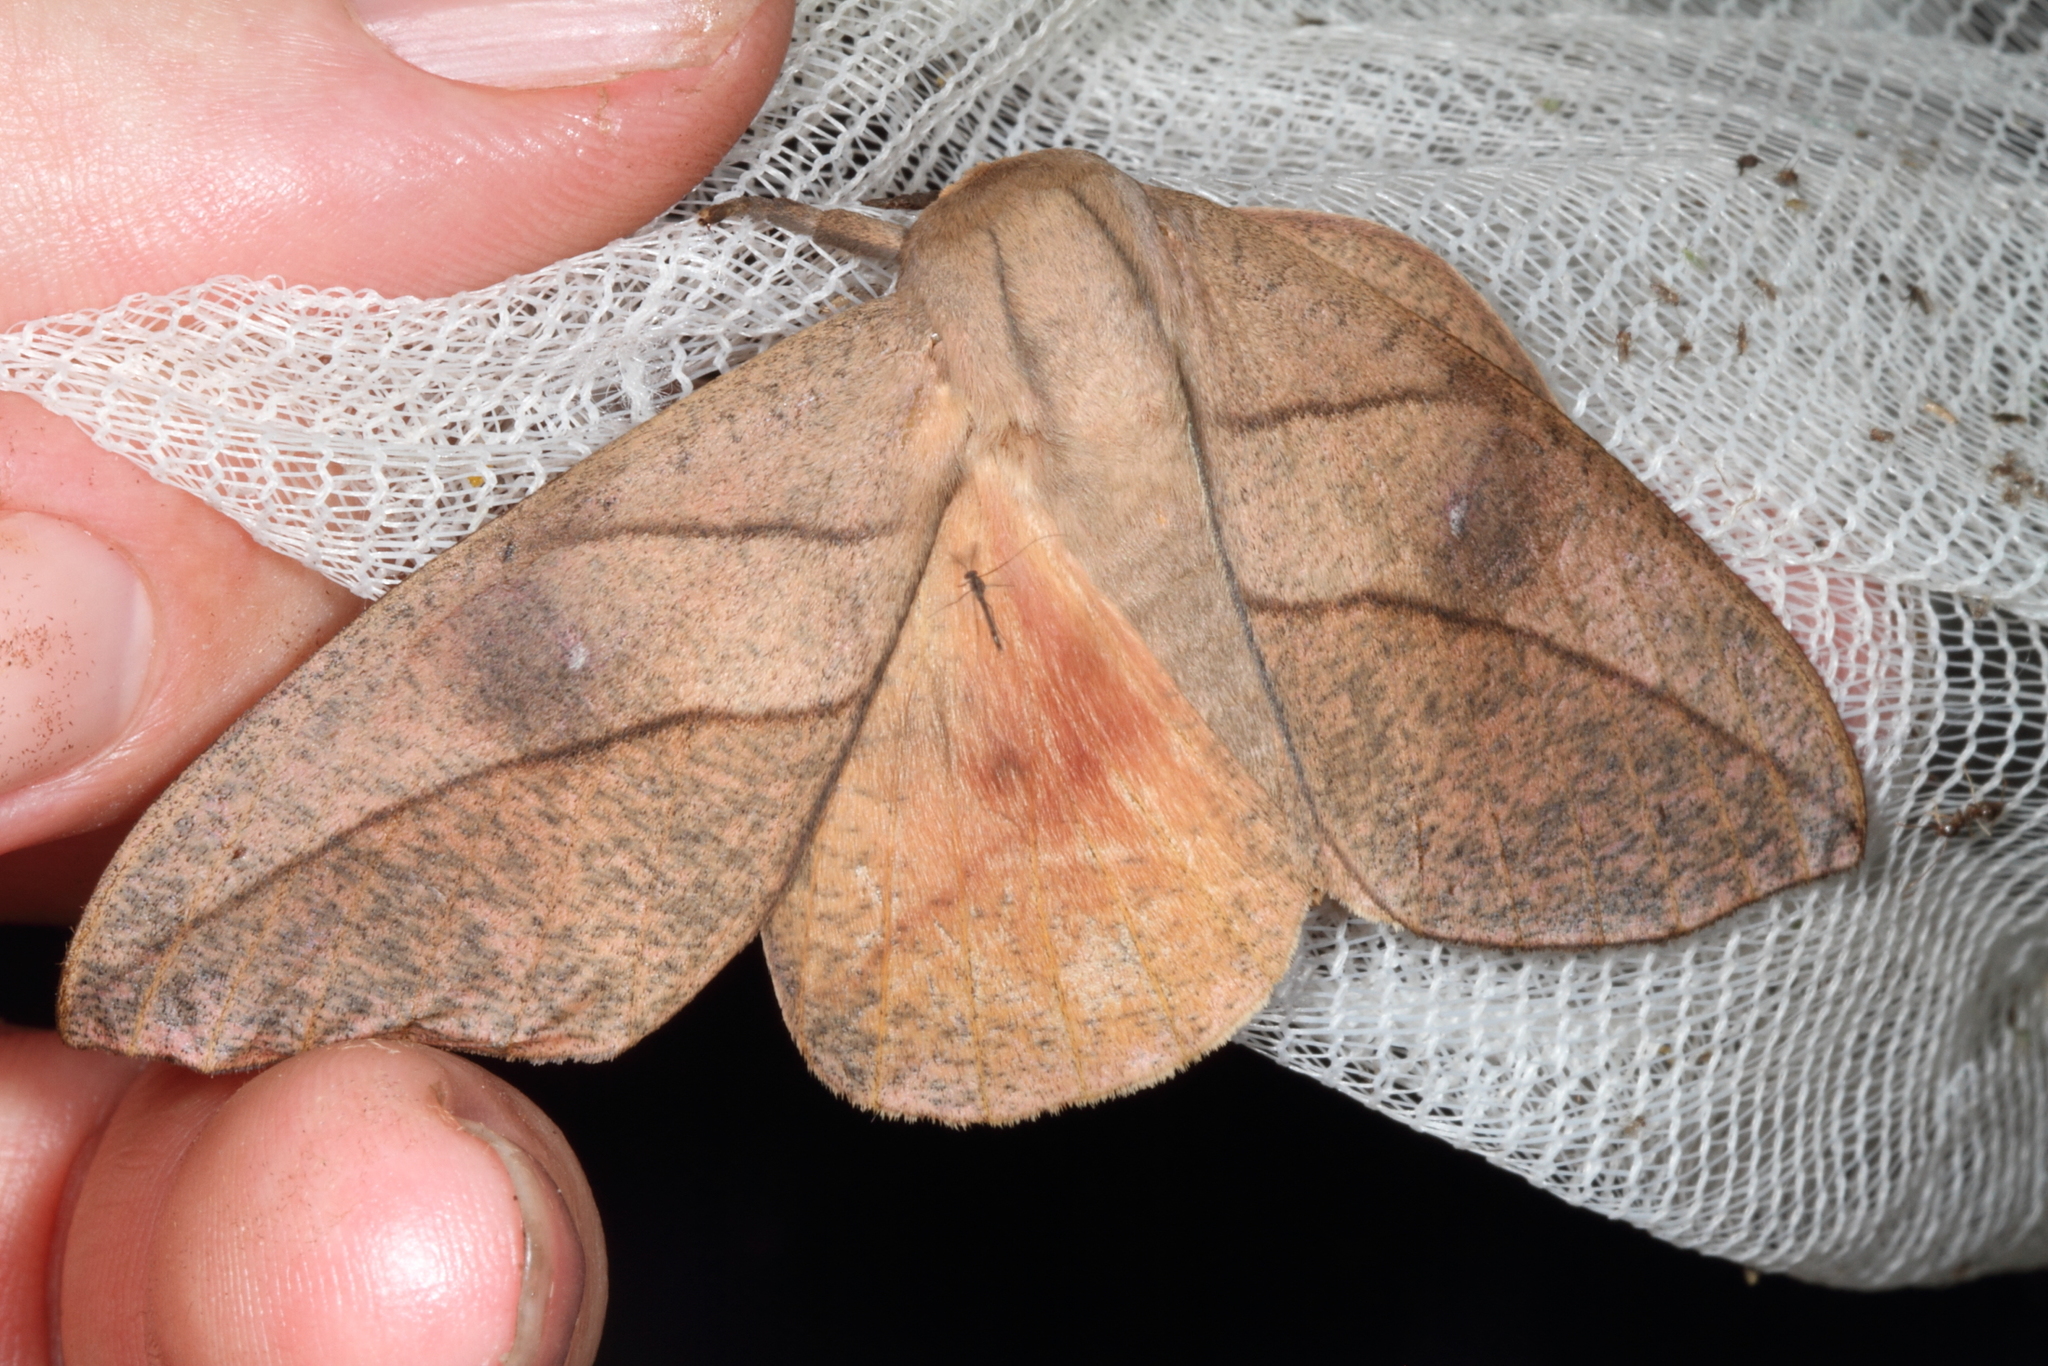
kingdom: Animalia
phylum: Arthropoda
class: Insecta
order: Lepidoptera
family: Saturniidae
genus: Adeloneivaia
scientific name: Adeloneivaia acuta
